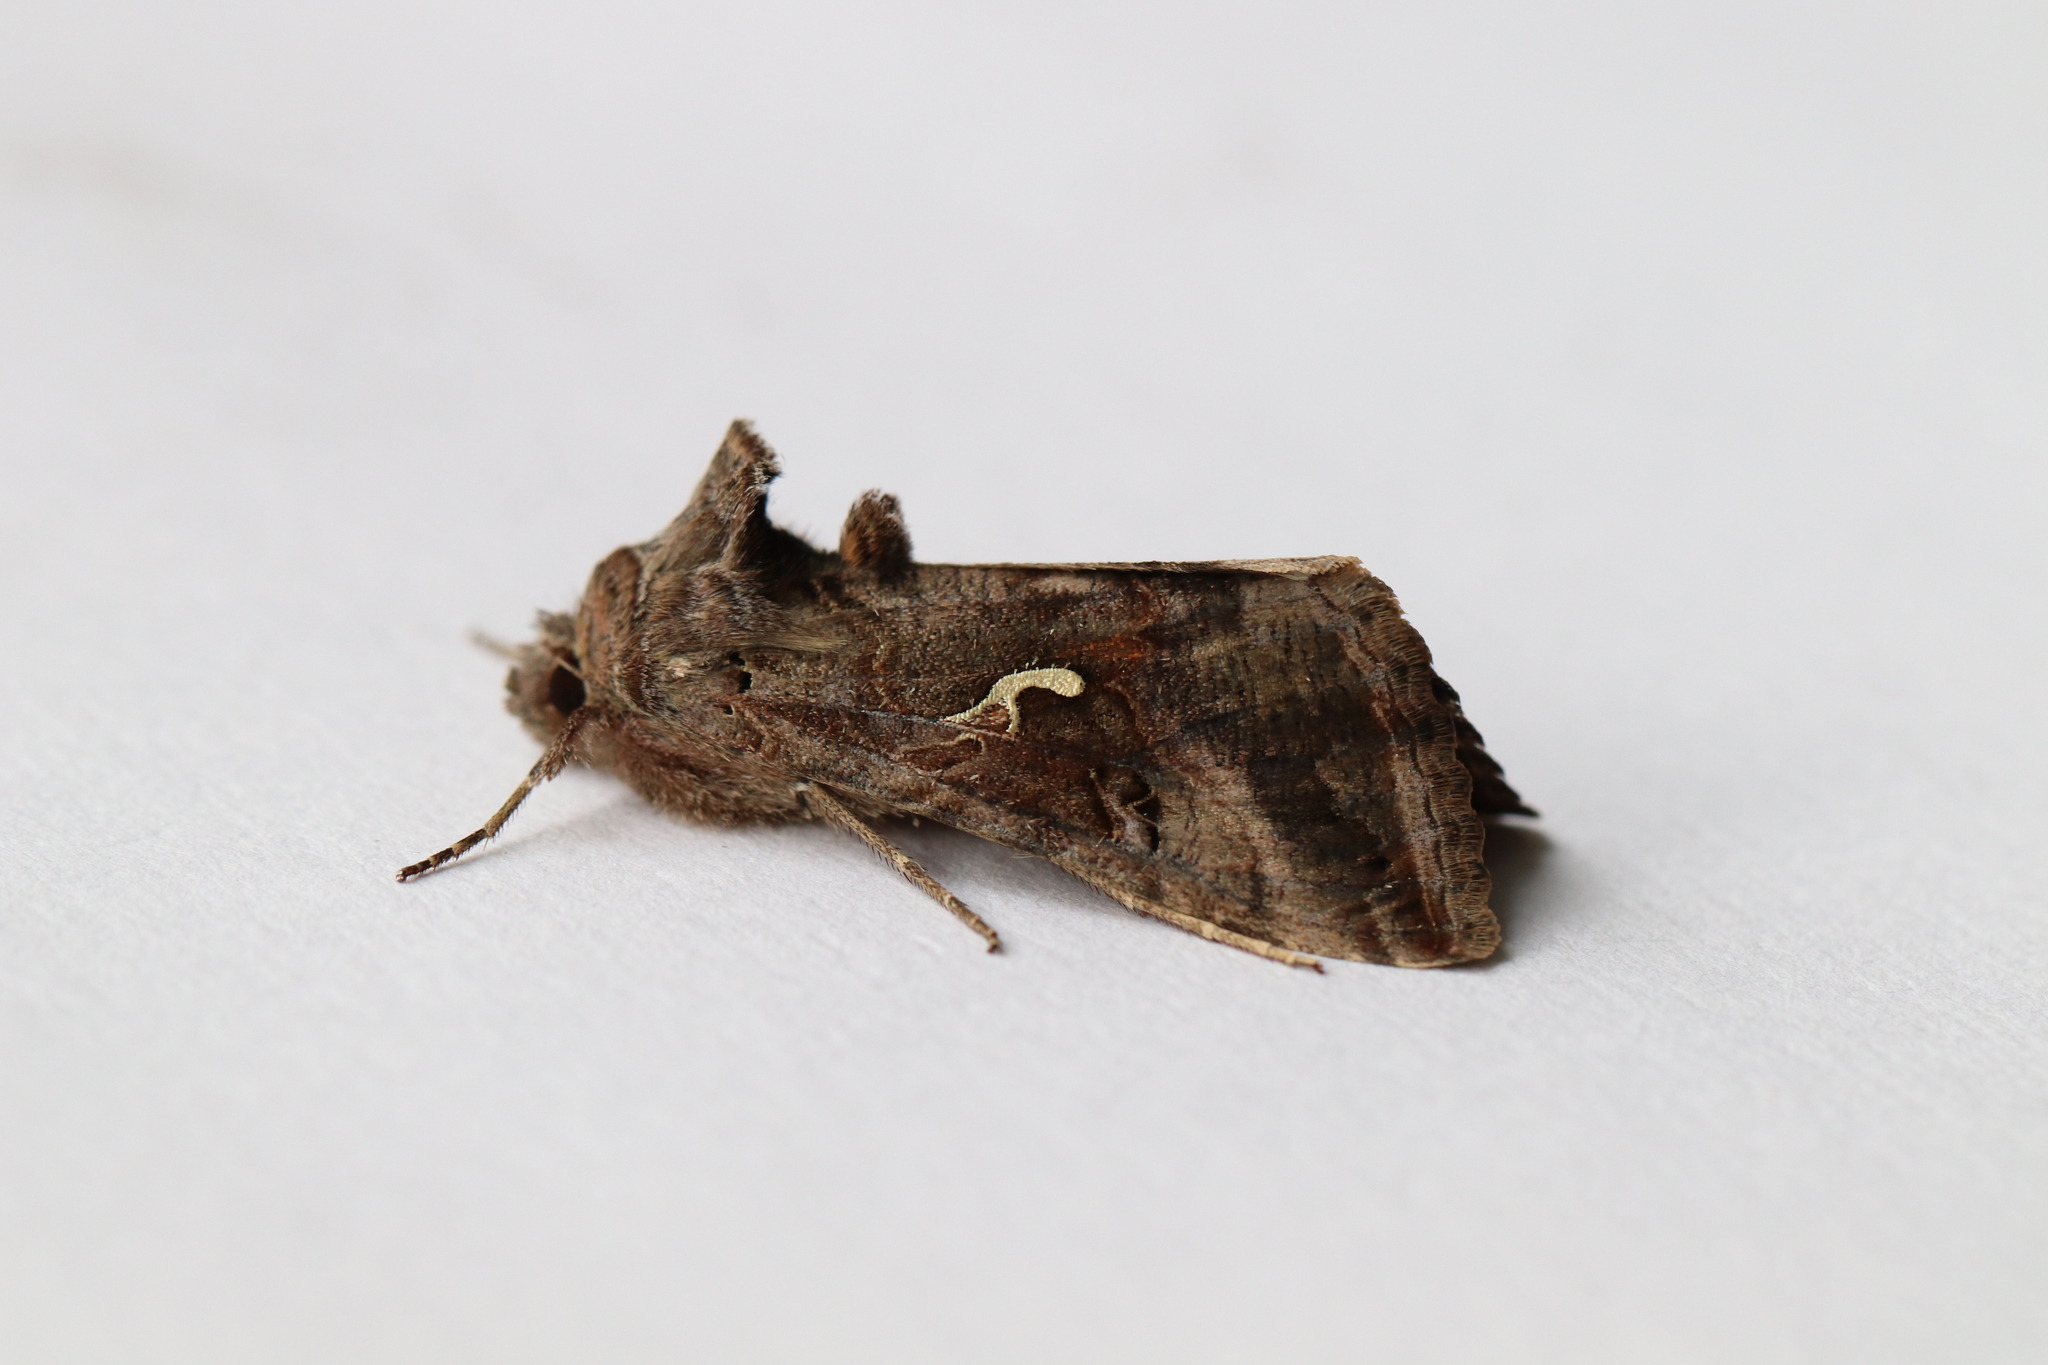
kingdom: Animalia
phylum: Arthropoda
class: Insecta
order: Lepidoptera
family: Noctuidae
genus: Autographa
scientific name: Autographa gamma
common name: Silver y
